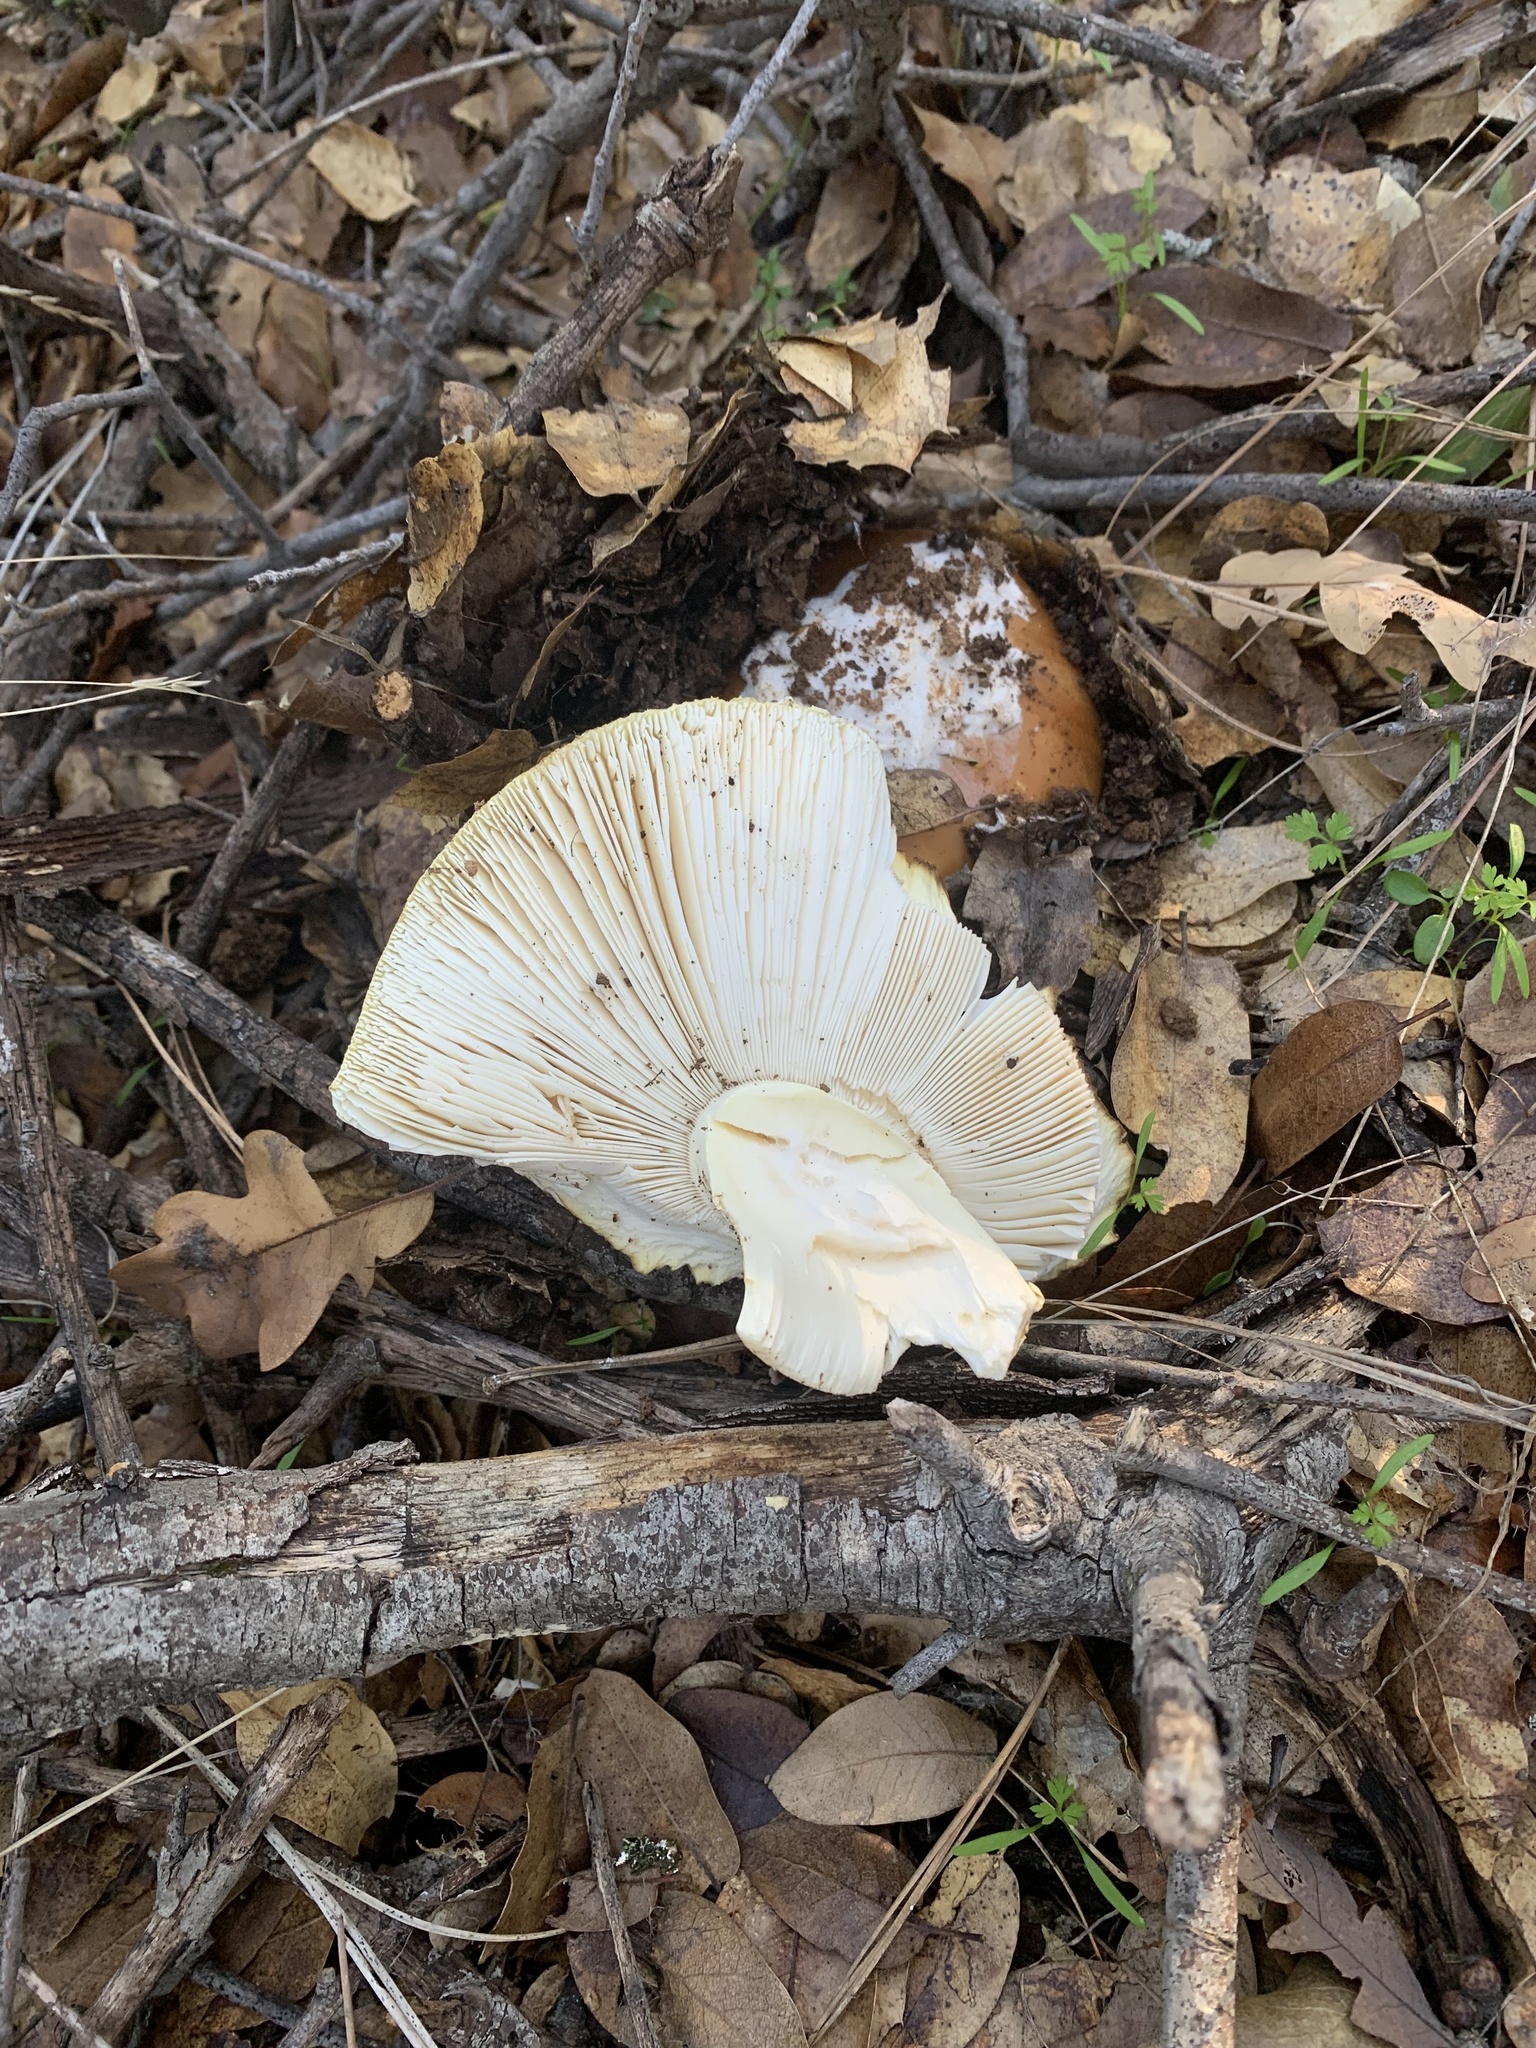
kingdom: Fungi
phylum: Basidiomycota
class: Agaricomycetes
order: Agaricales
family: Amanitaceae
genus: Amanita
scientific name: Amanita calyptroderma
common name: Coccora
